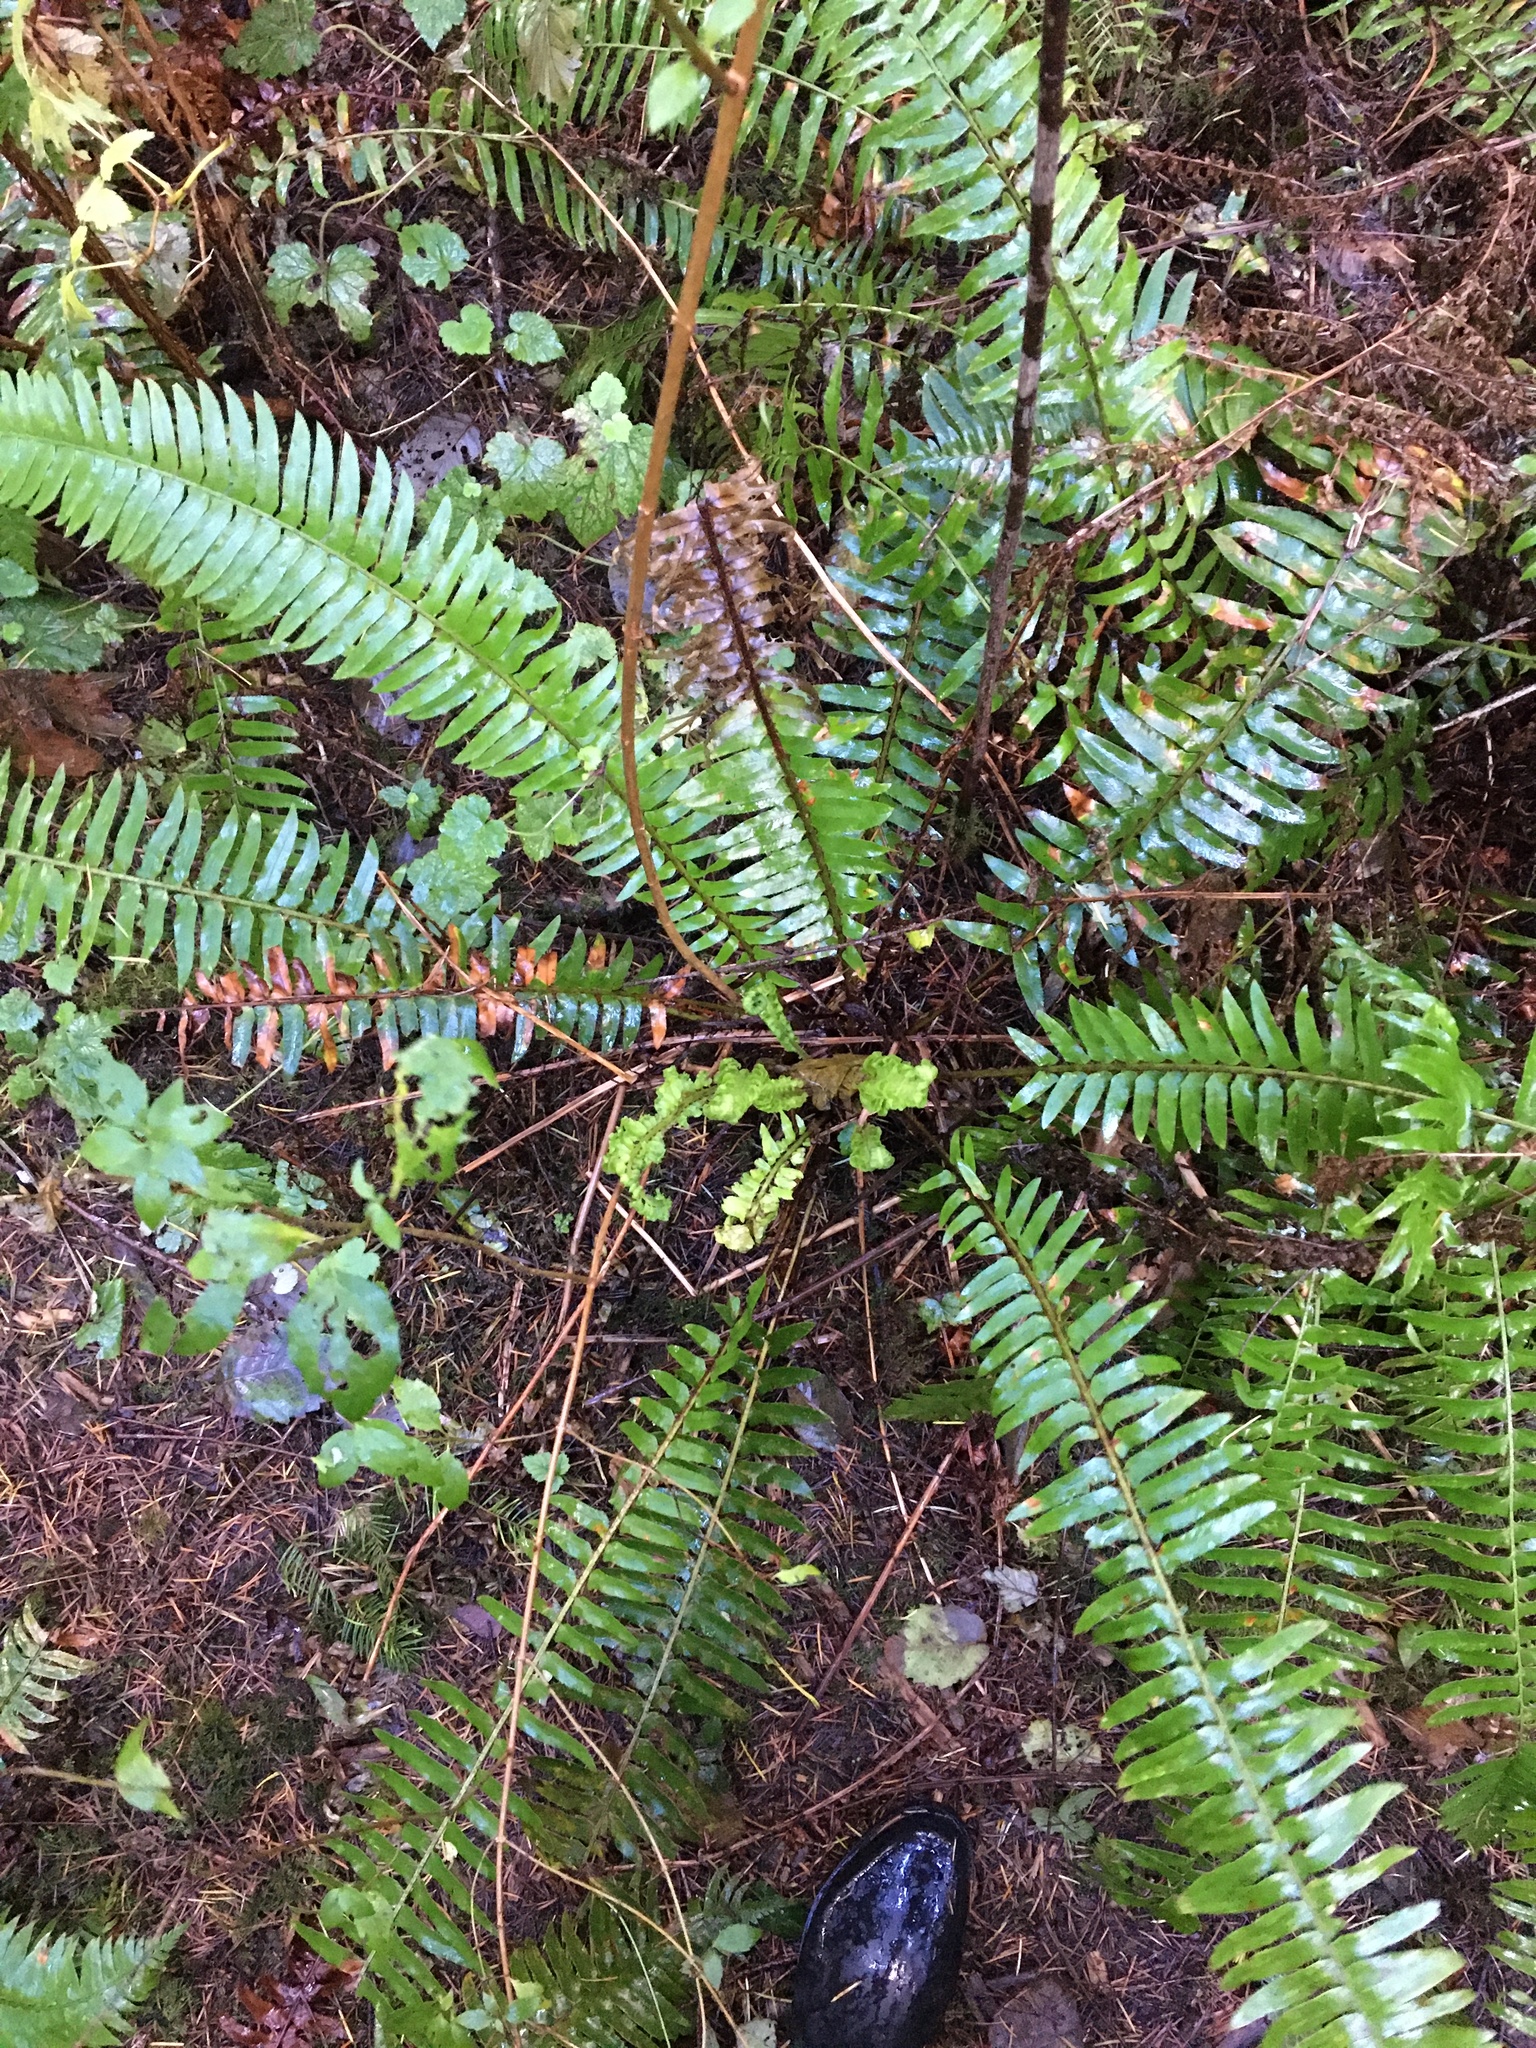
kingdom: Plantae
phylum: Tracheophyta
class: Polypodiopsida
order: Polypodiales
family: Dryopteridaceae
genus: Polystichum
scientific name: Polystichum munitum
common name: Western sword-fern
